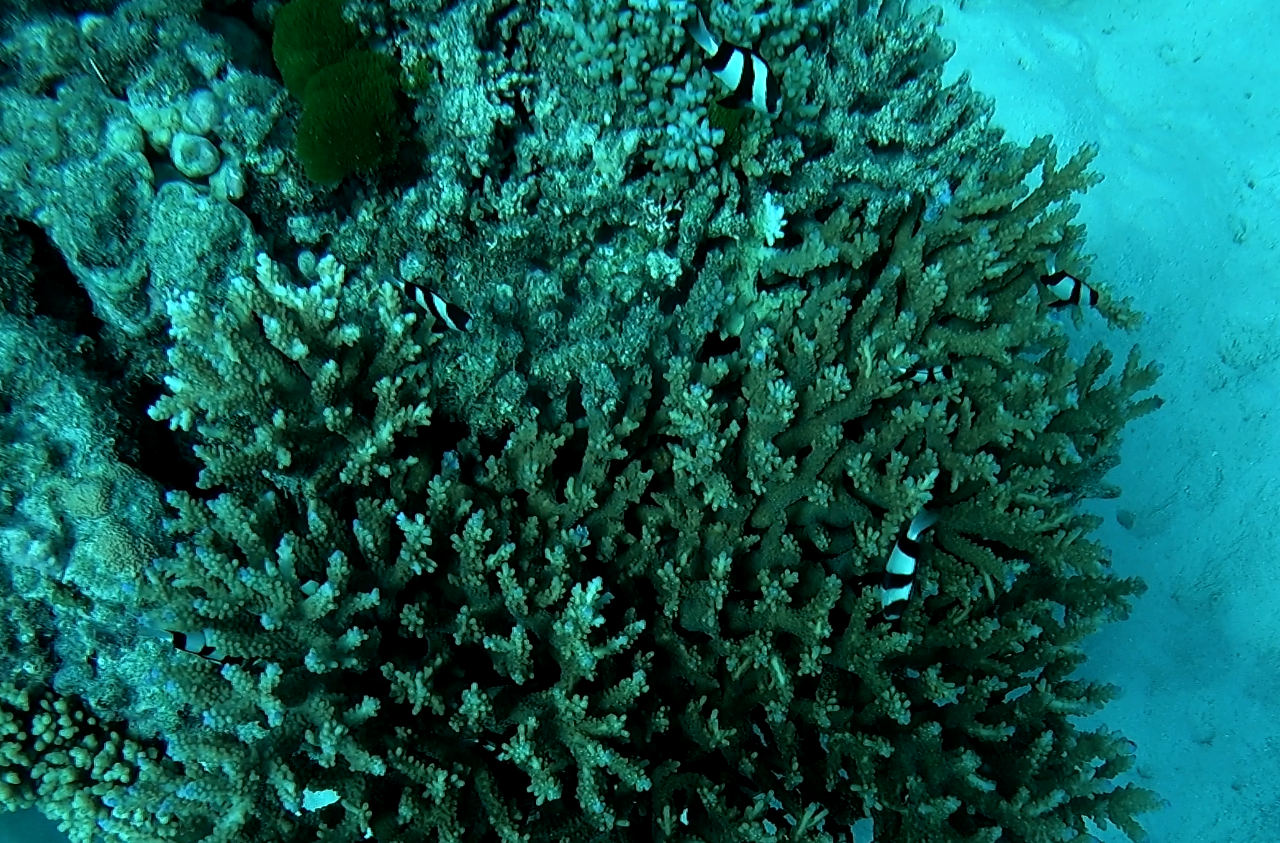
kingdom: Animalia
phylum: Chordata
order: Perciformes
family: Pomacentridae
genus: Dascyllus
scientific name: Dascyllus aruanus
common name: Humbug dascyllus
